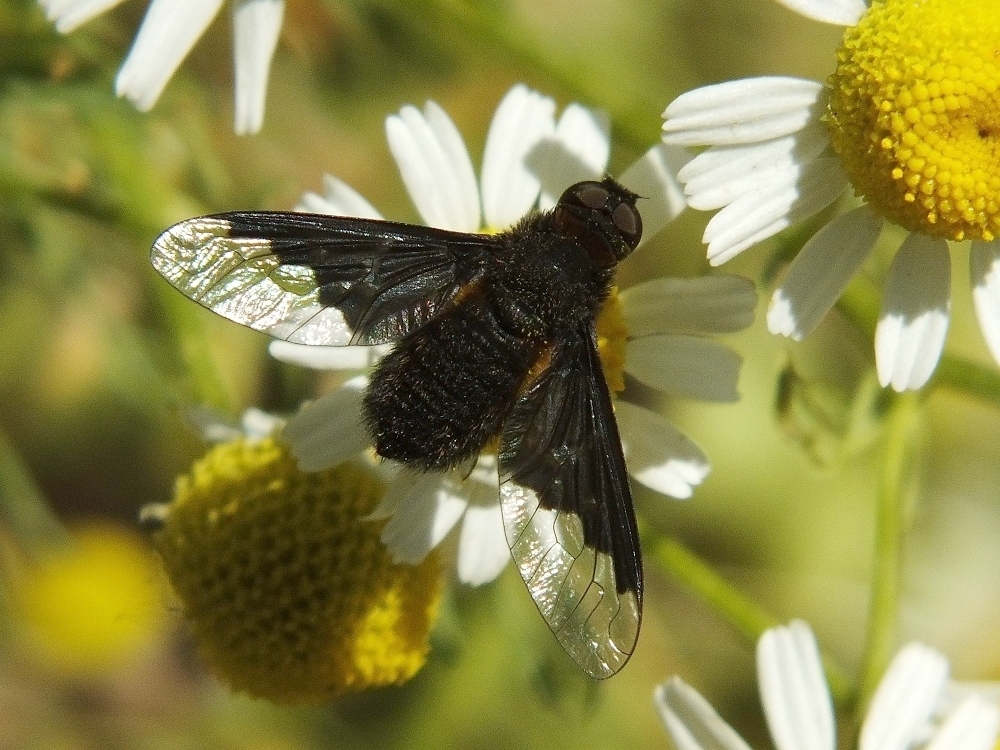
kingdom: Animalia
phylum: Arthropoda
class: Insecta
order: Diptera
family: Bombyliidae
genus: Hemipenthes
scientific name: Hemipenthes morio
